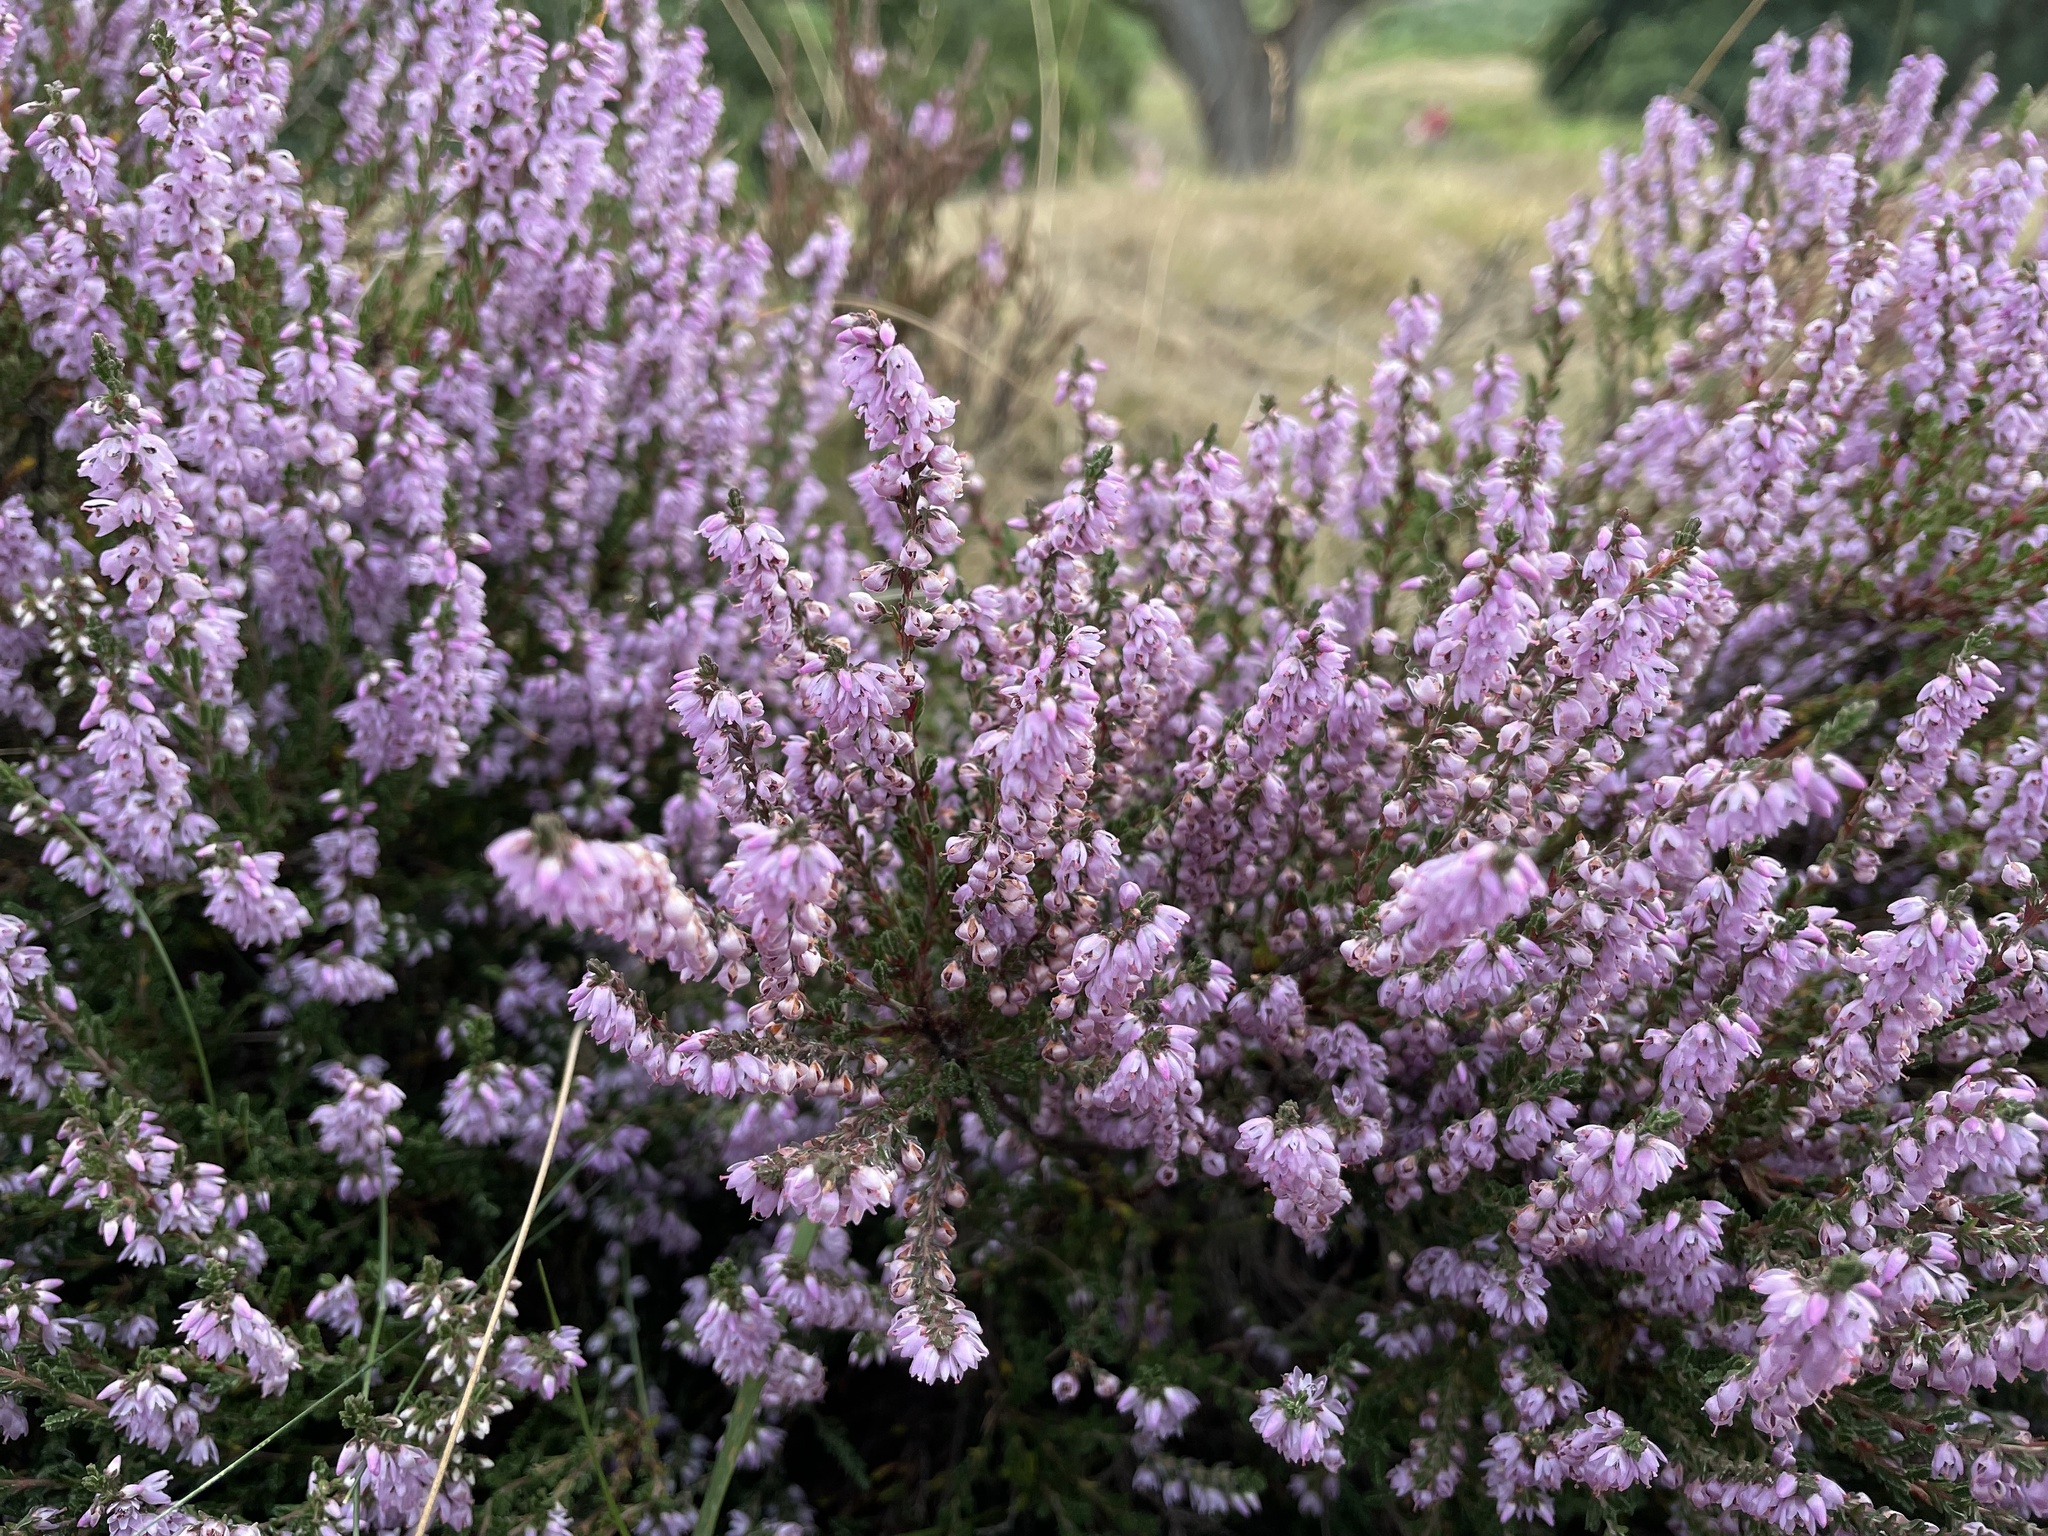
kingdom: Plantae
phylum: Tracheophyta
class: Magnoliopsida
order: Ericales
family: Ericaceae
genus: Calluna
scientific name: Calluna vulgaris
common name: Heather
